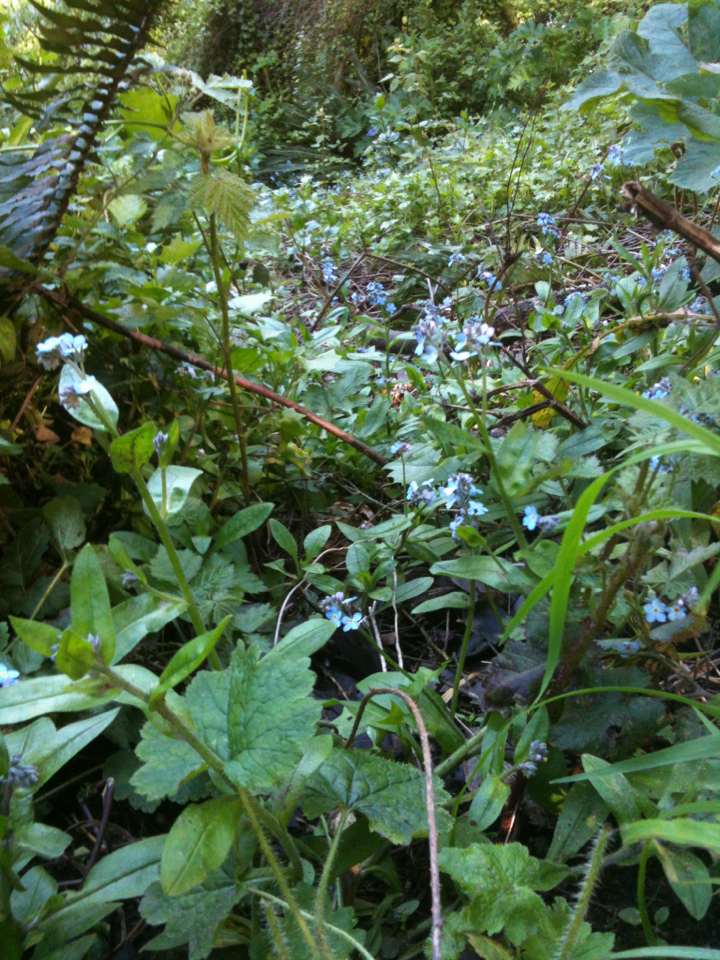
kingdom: Plantae
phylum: Tracheophyta
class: Magnoliopsida
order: Boraginales
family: Boraginaceae
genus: Myosotis
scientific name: Myosotis latifolia
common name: Broadleaf forget-me-not
